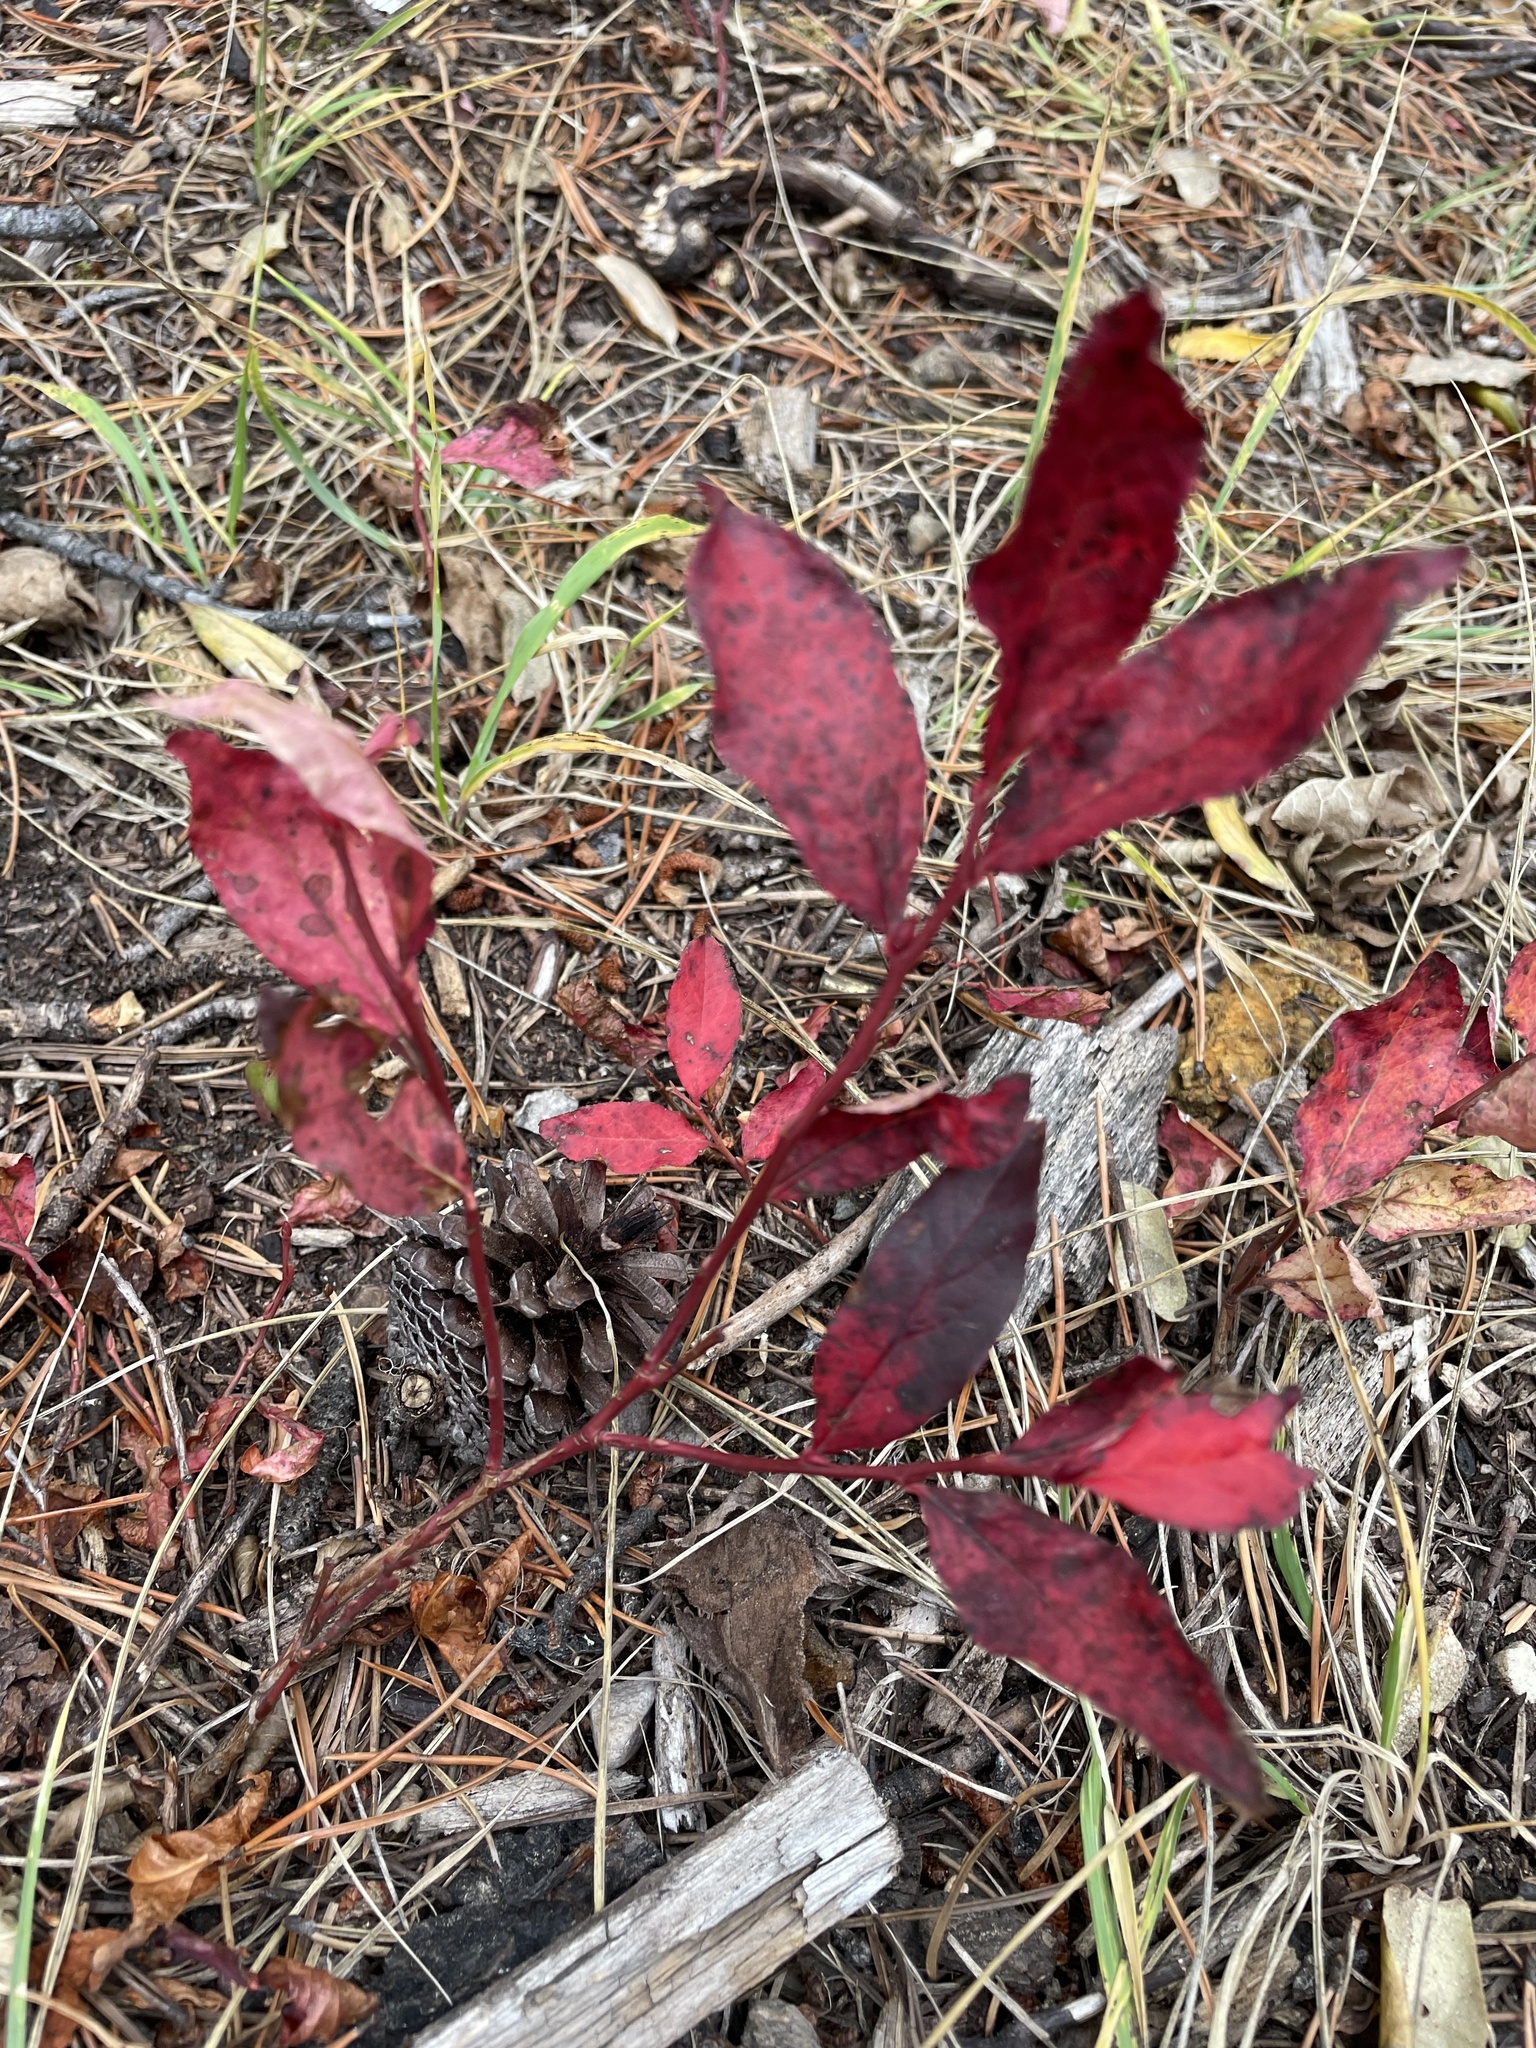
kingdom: Plantae
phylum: Tracheophyta
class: Magnoliopsida
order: Ericales
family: Ericaceae
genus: Vaccinium
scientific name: Vaccinium membranaceum
